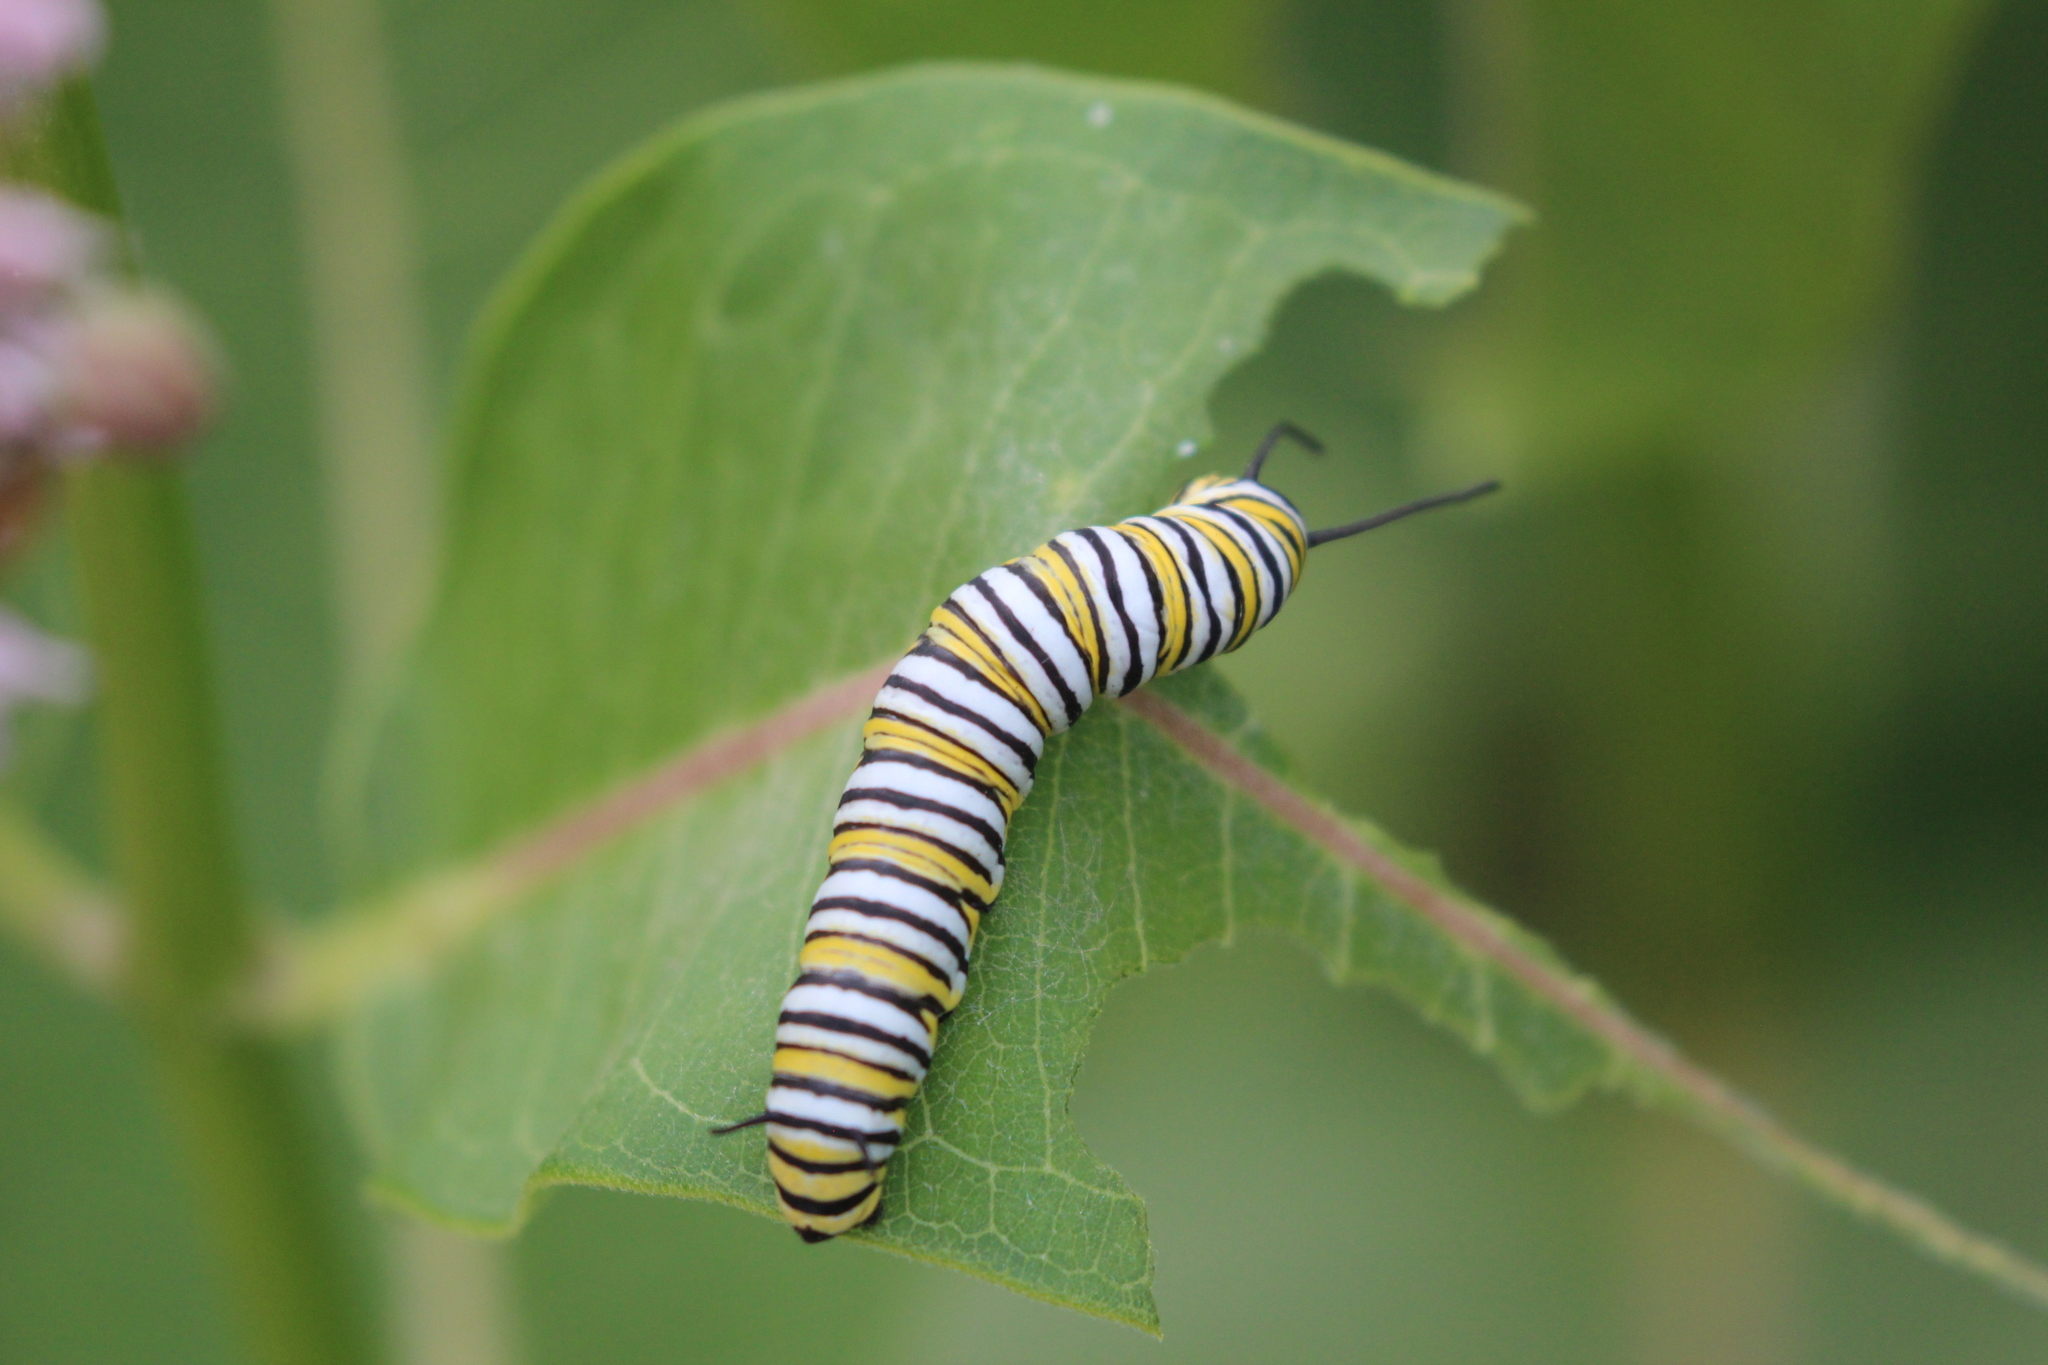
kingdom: Animalia
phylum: Arthropoda
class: Insecta
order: Lepidoptera
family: Nymphalidae
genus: Danaus
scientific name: Danaus plexippus
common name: Monarch
